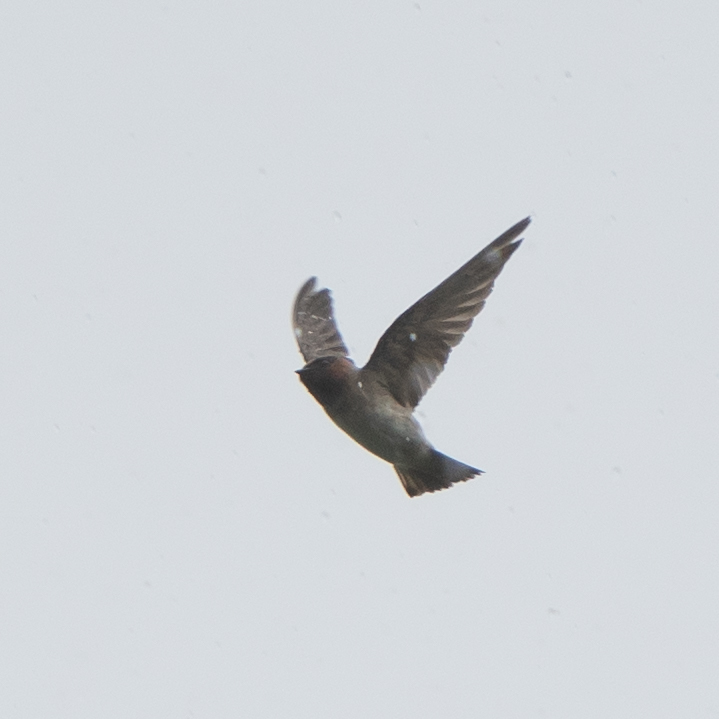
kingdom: Animalia
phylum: Chordata
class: Aves
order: Passeriformes
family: Hirundinidae
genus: Petrochelidon
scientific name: Petrochelidon pyrrhonota
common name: American cliff swallow
